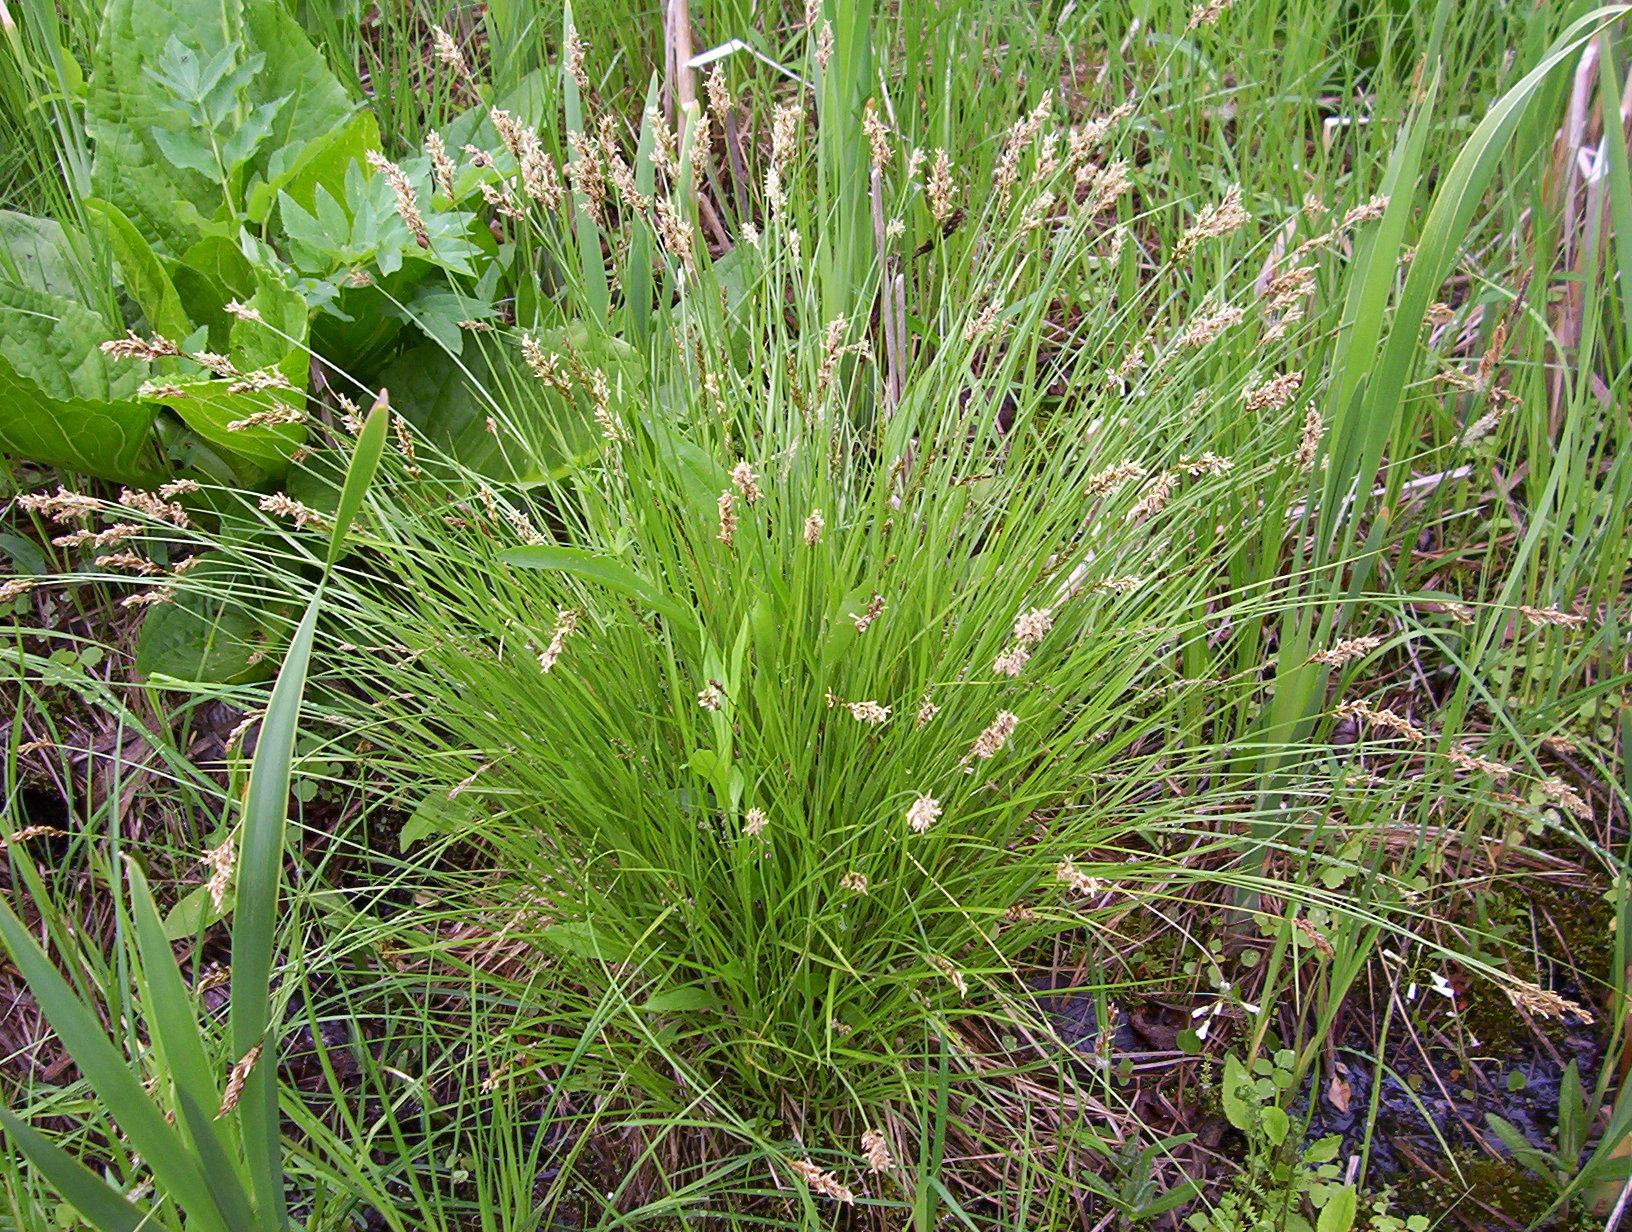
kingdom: Plantae
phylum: Tracheophyta
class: Liliopsida
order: Poales
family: Cyperaceae
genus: Carex
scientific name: Carex prairea
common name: Prairie sedge
